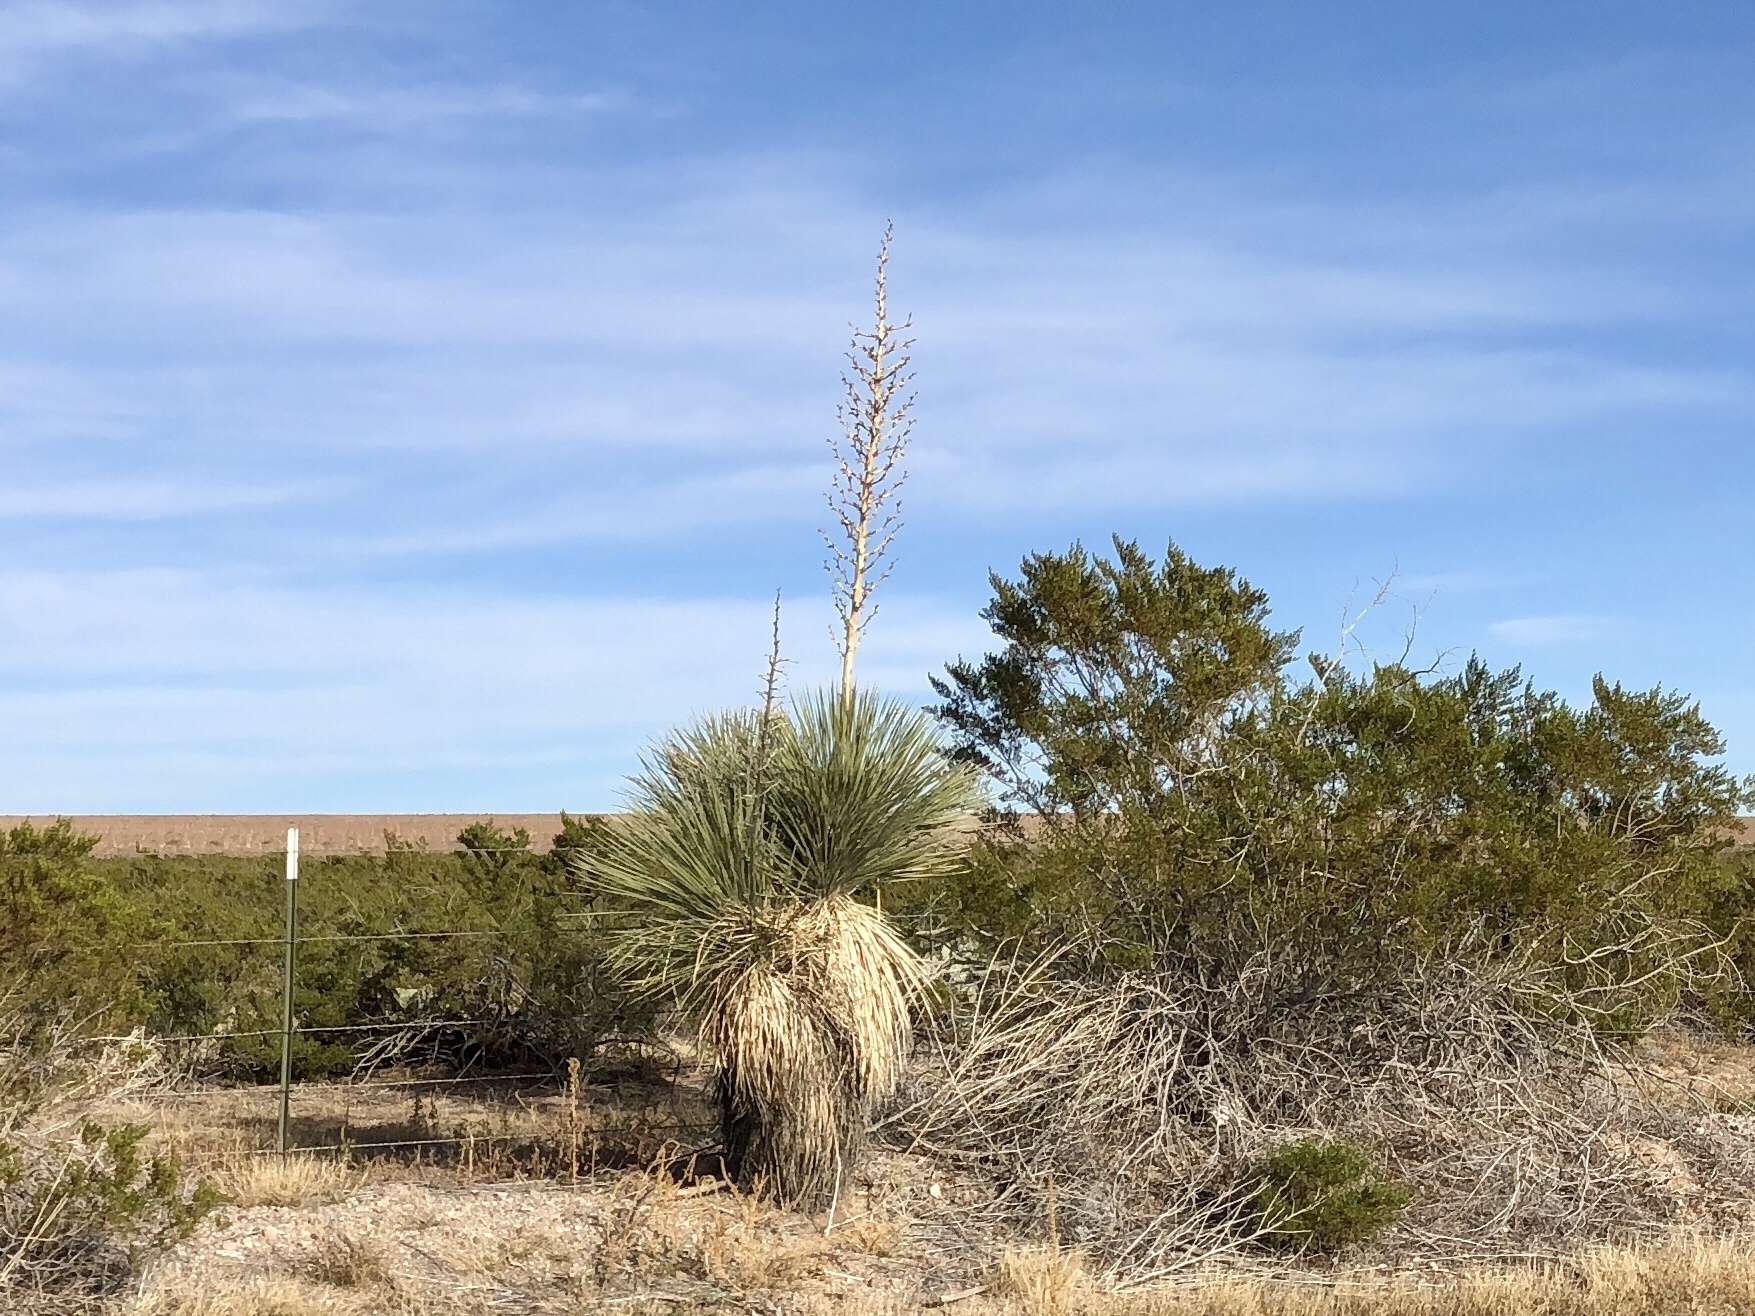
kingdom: Plantae
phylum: Tracheophyta
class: Liliopsida
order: Asparagales
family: Asparagaceae
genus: Yucca
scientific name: Yucca elata
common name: Palmella
